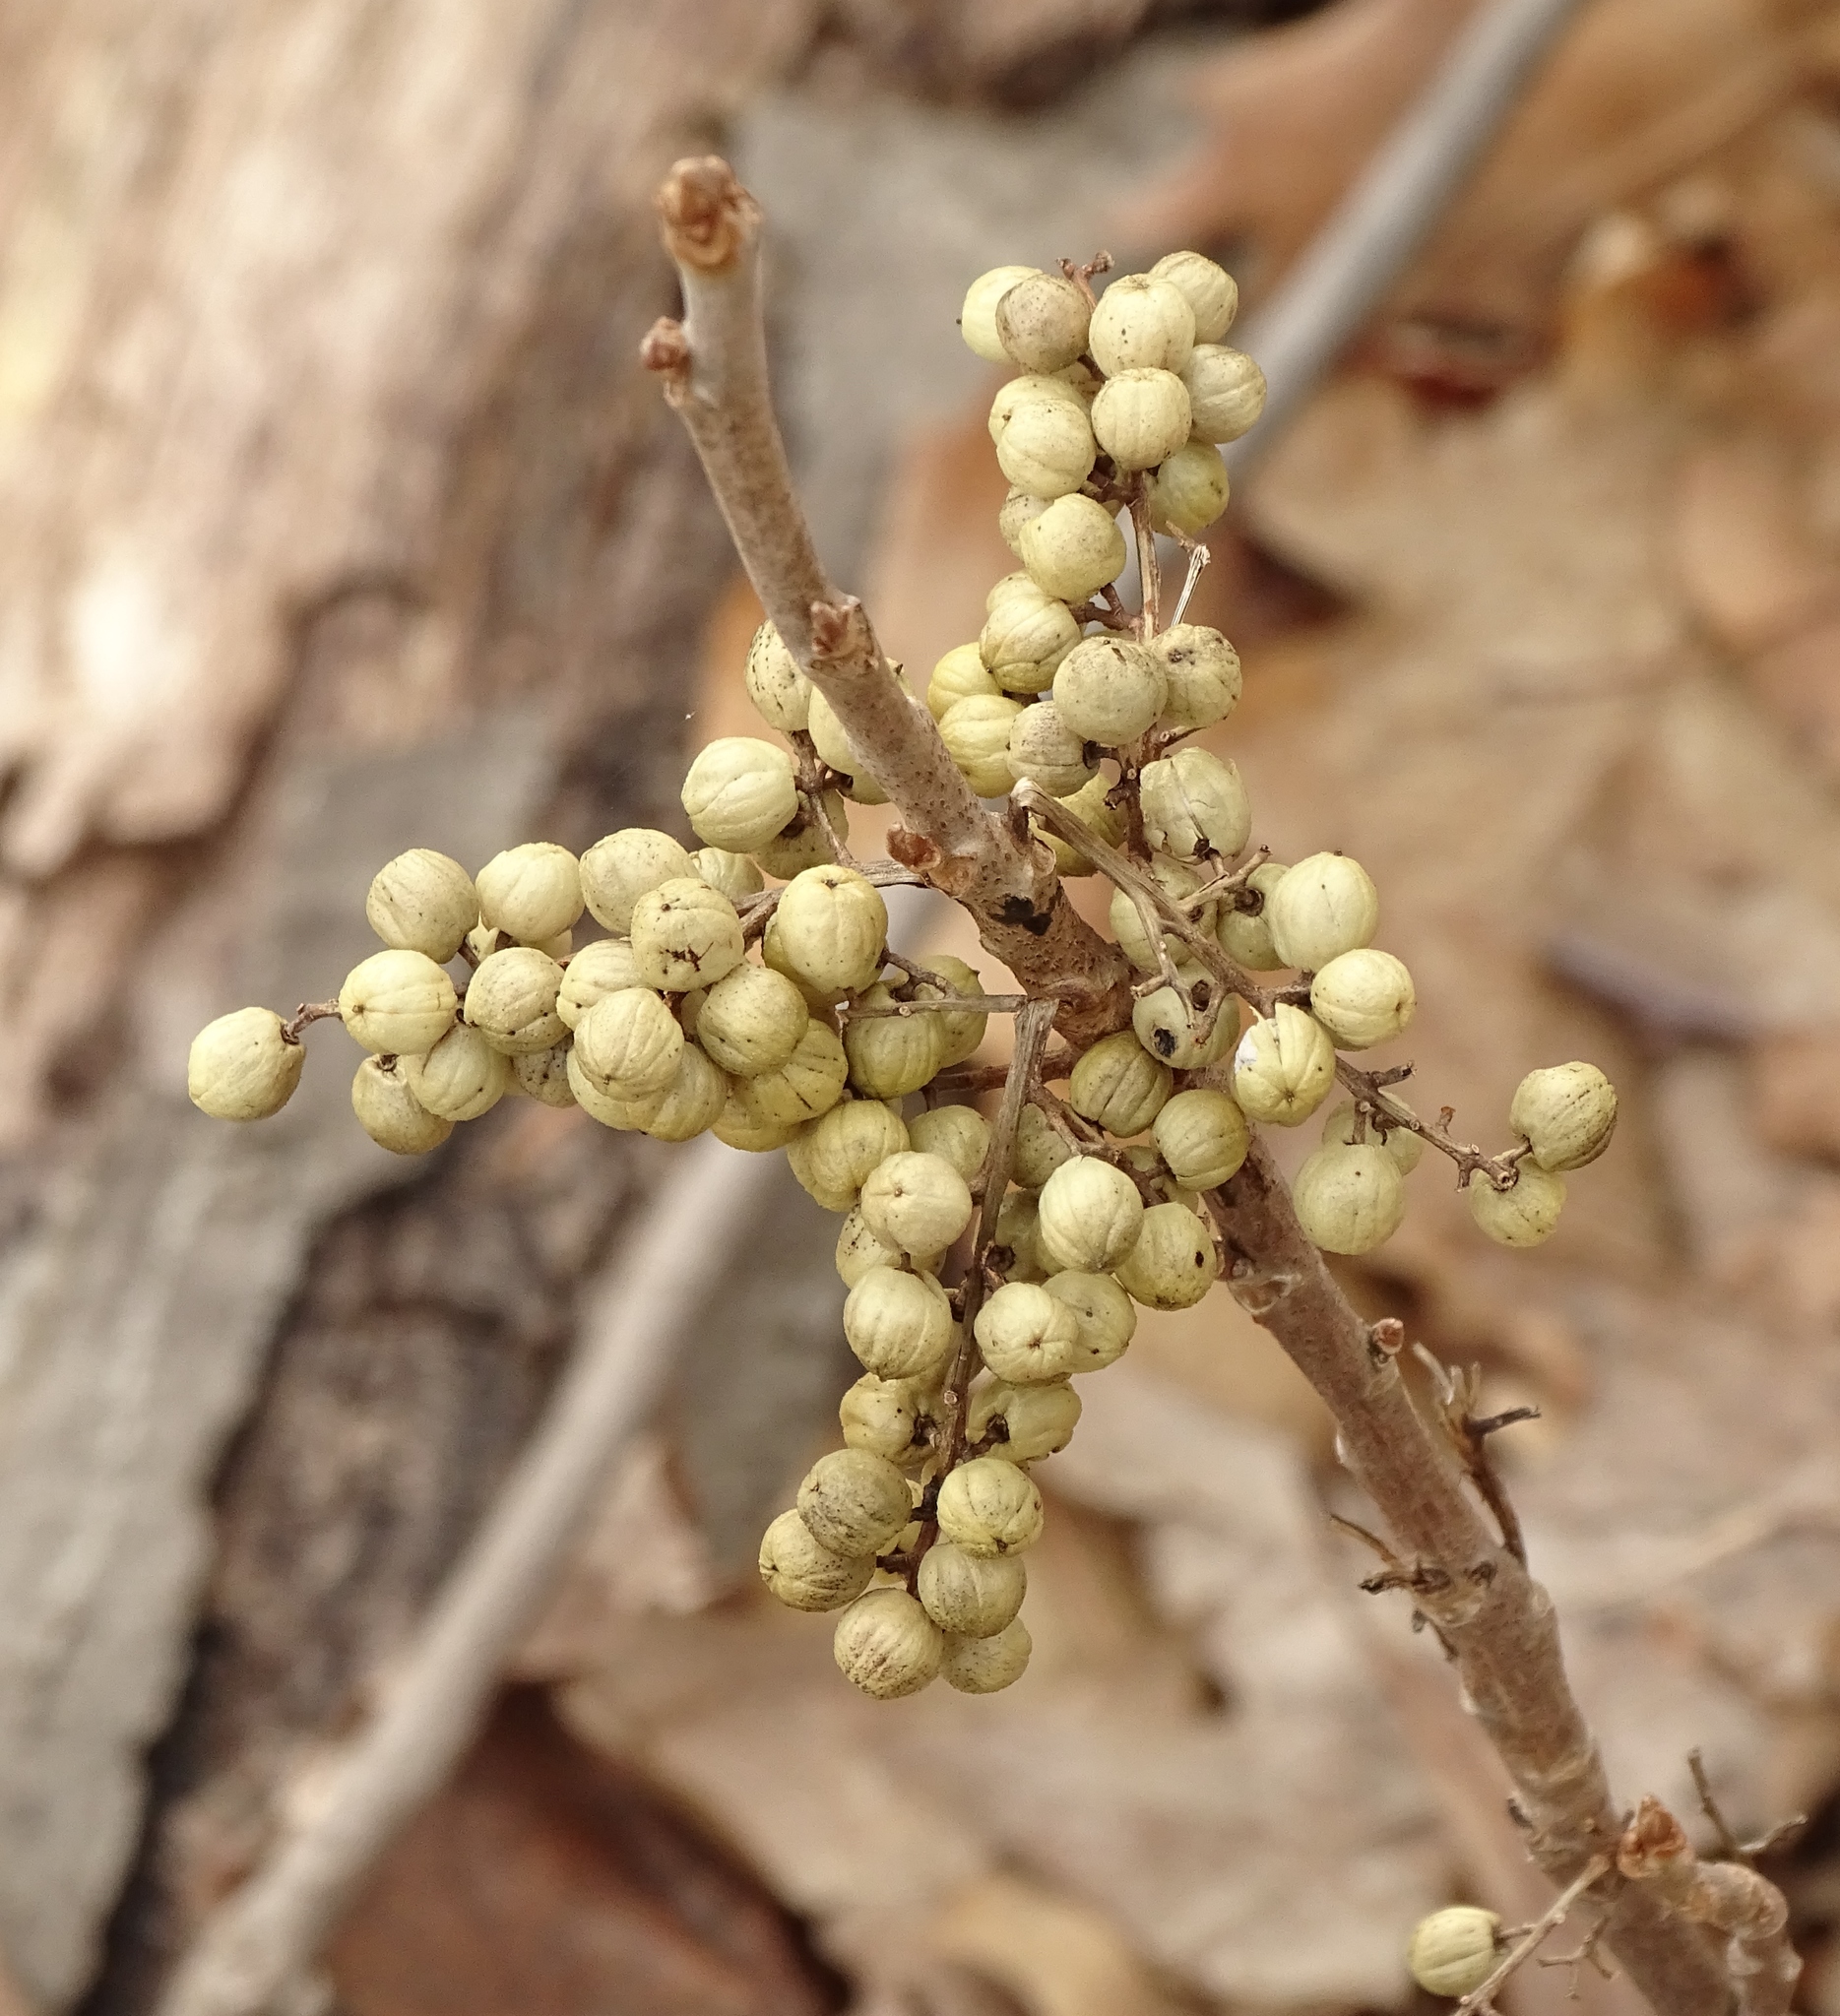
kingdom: Plantae
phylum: Tracheophyta
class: Magnoliopsida
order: Sapindales
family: Anacardiaceae
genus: Toxicodendron
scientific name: Toxicodendron radicans
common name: Poison ivy
